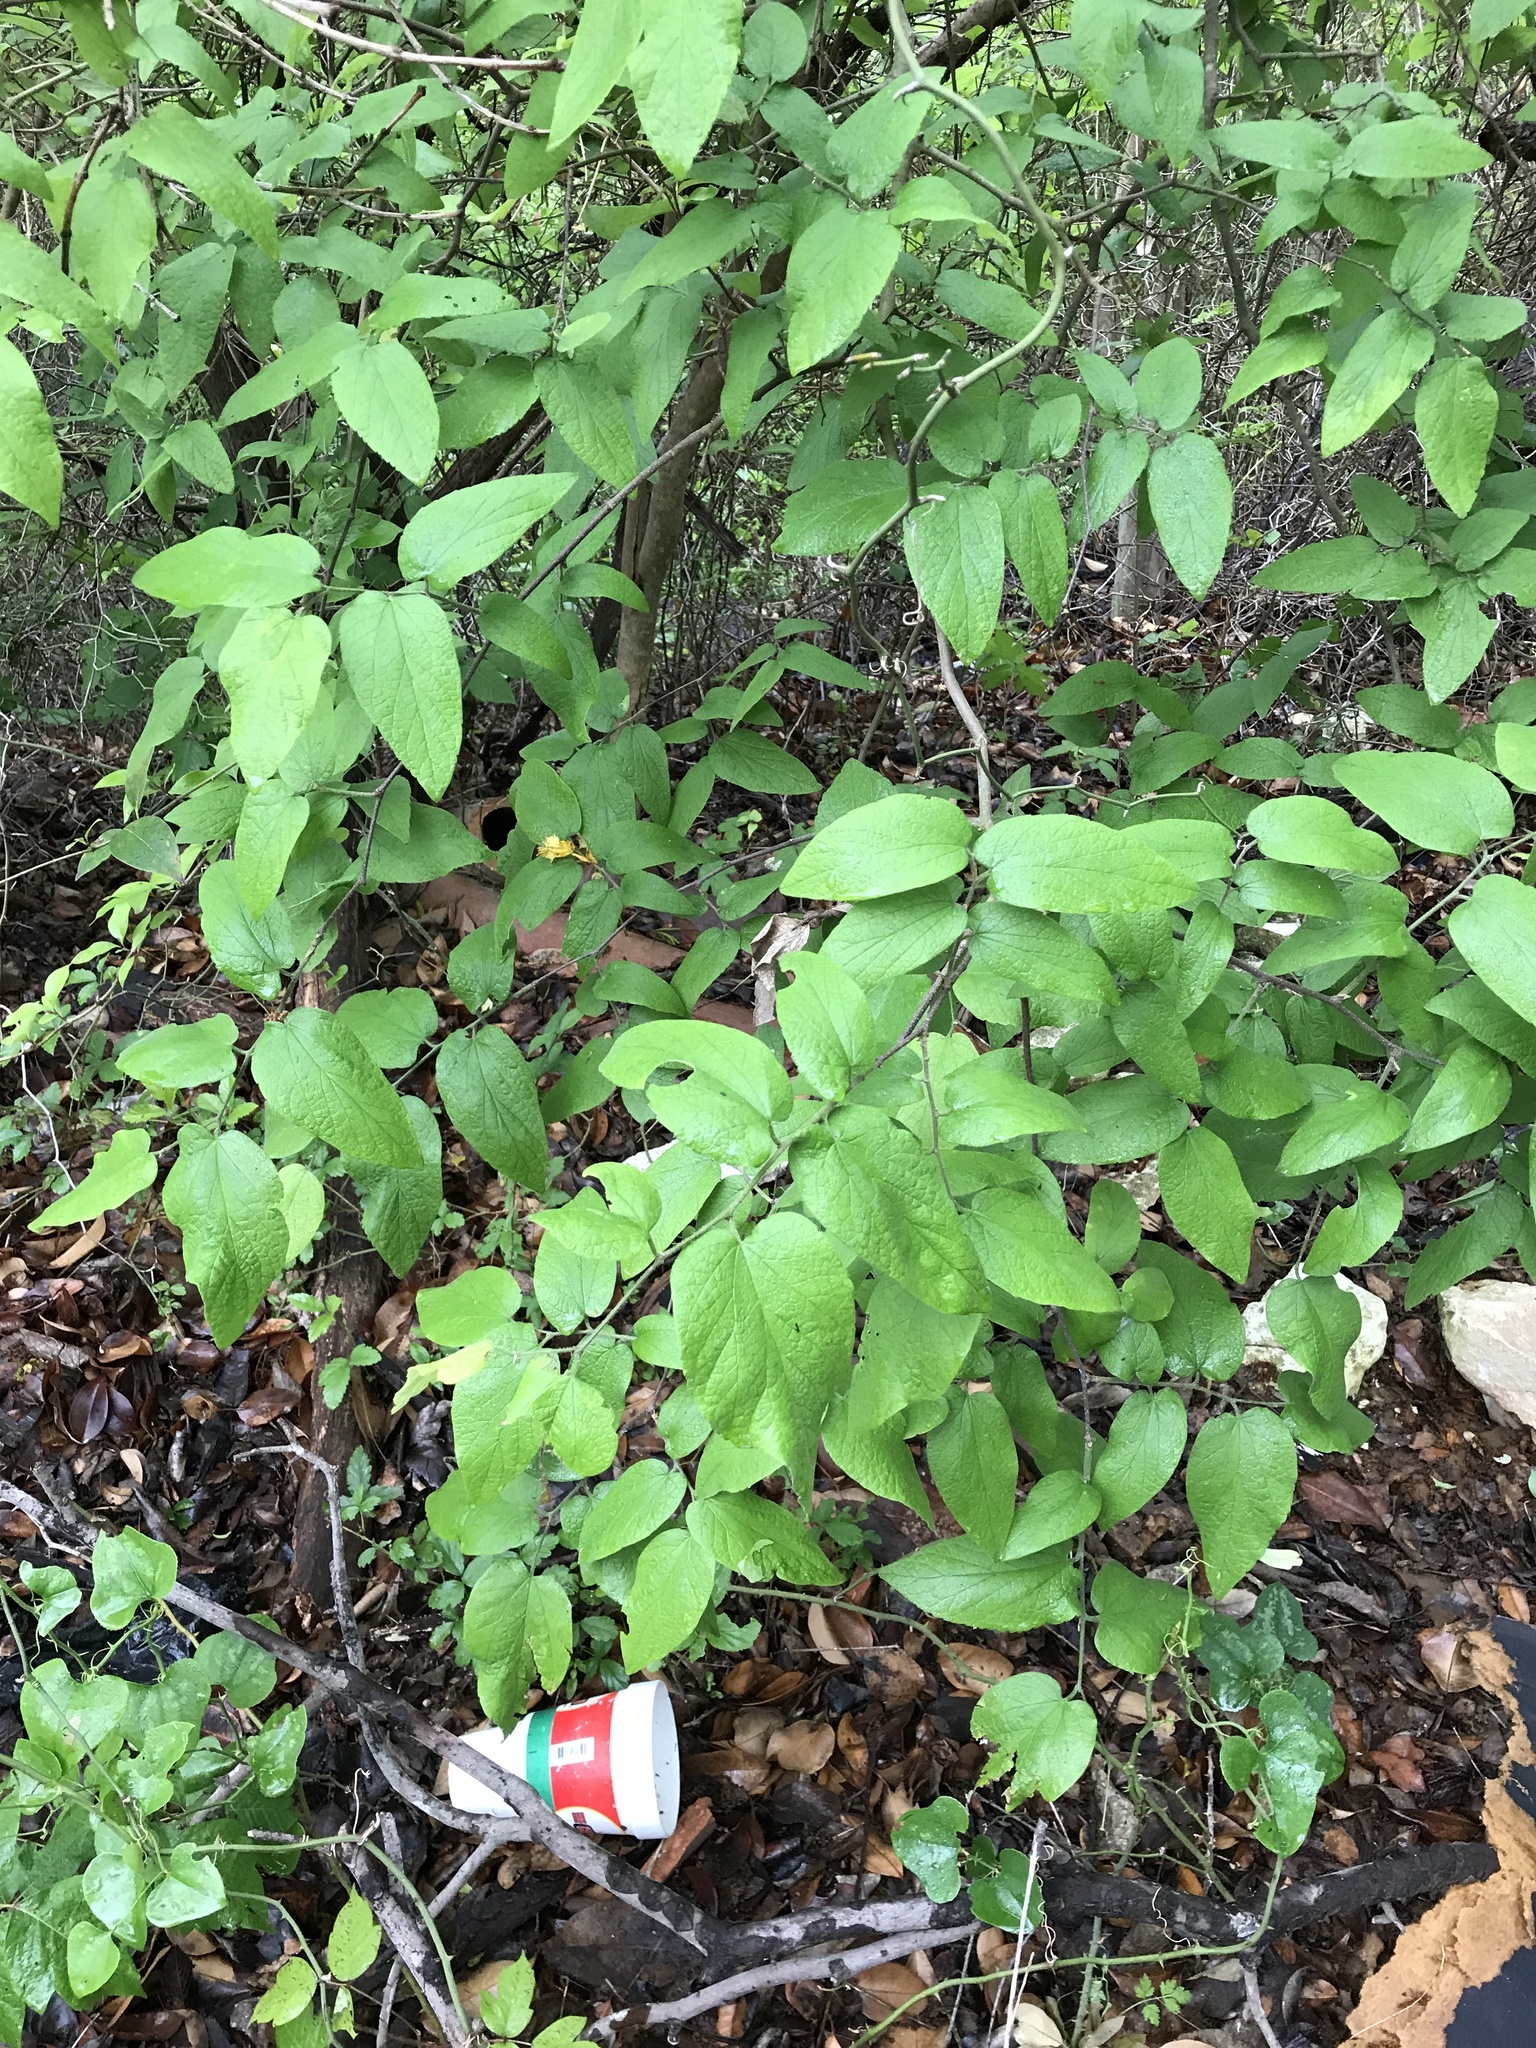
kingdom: Plantae
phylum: Tracheophyta
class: Magnoliopsida
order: Rosales
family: Cannabaceae
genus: Celtis
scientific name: Celtis reticulata
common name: Netleaf hackberry
